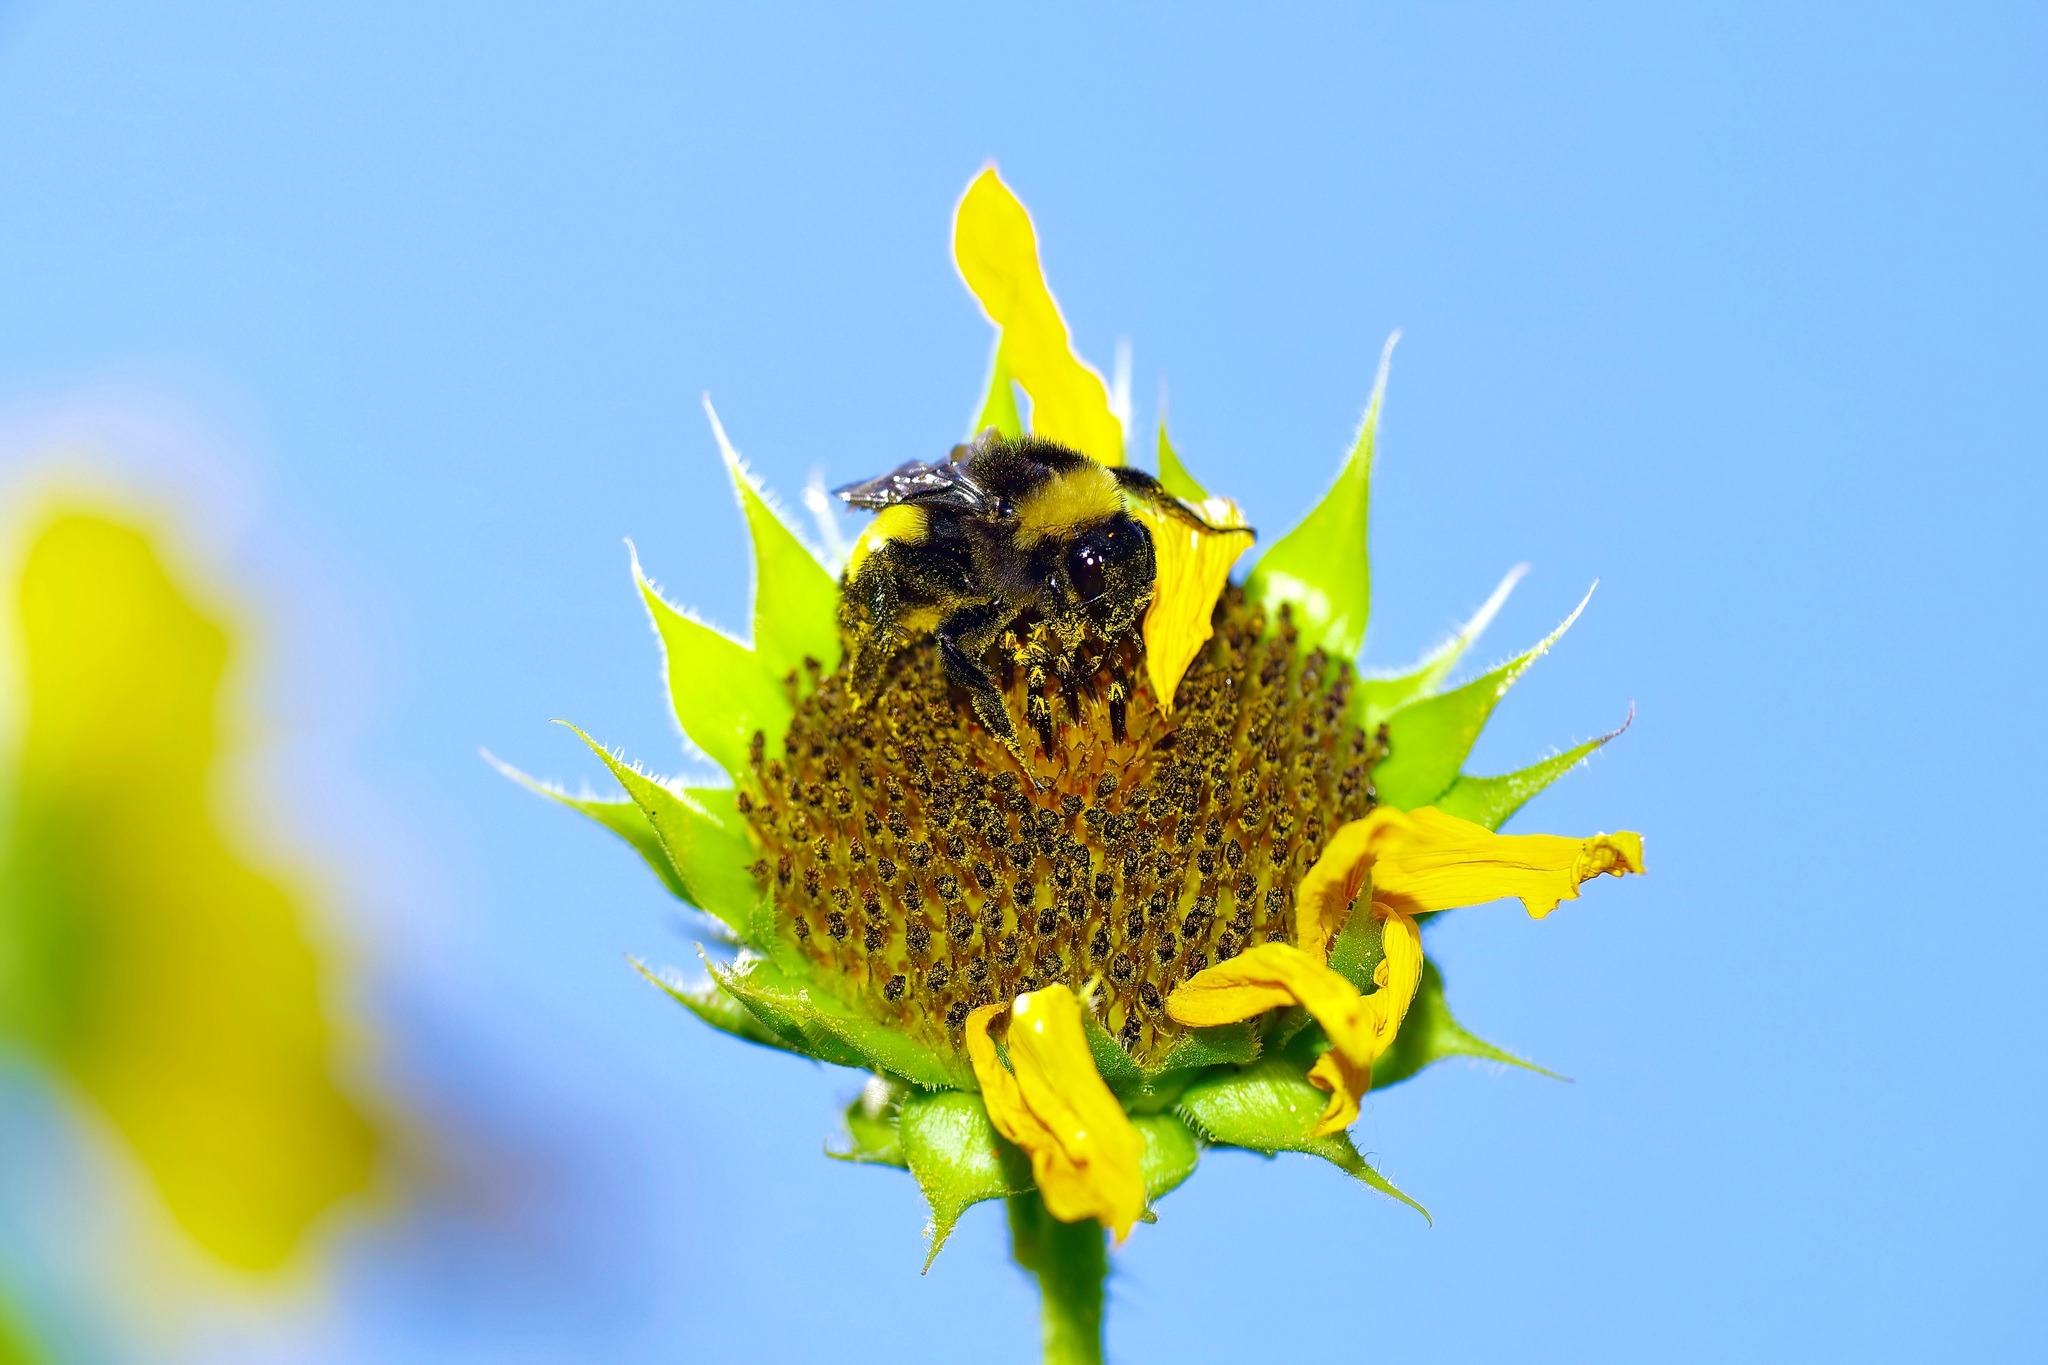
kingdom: Animalia
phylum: Arthropoda
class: Insecta
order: Hymenoptera
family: Apidae
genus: Bombus
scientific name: Bombus pensylvanicus
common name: Bumble bee
